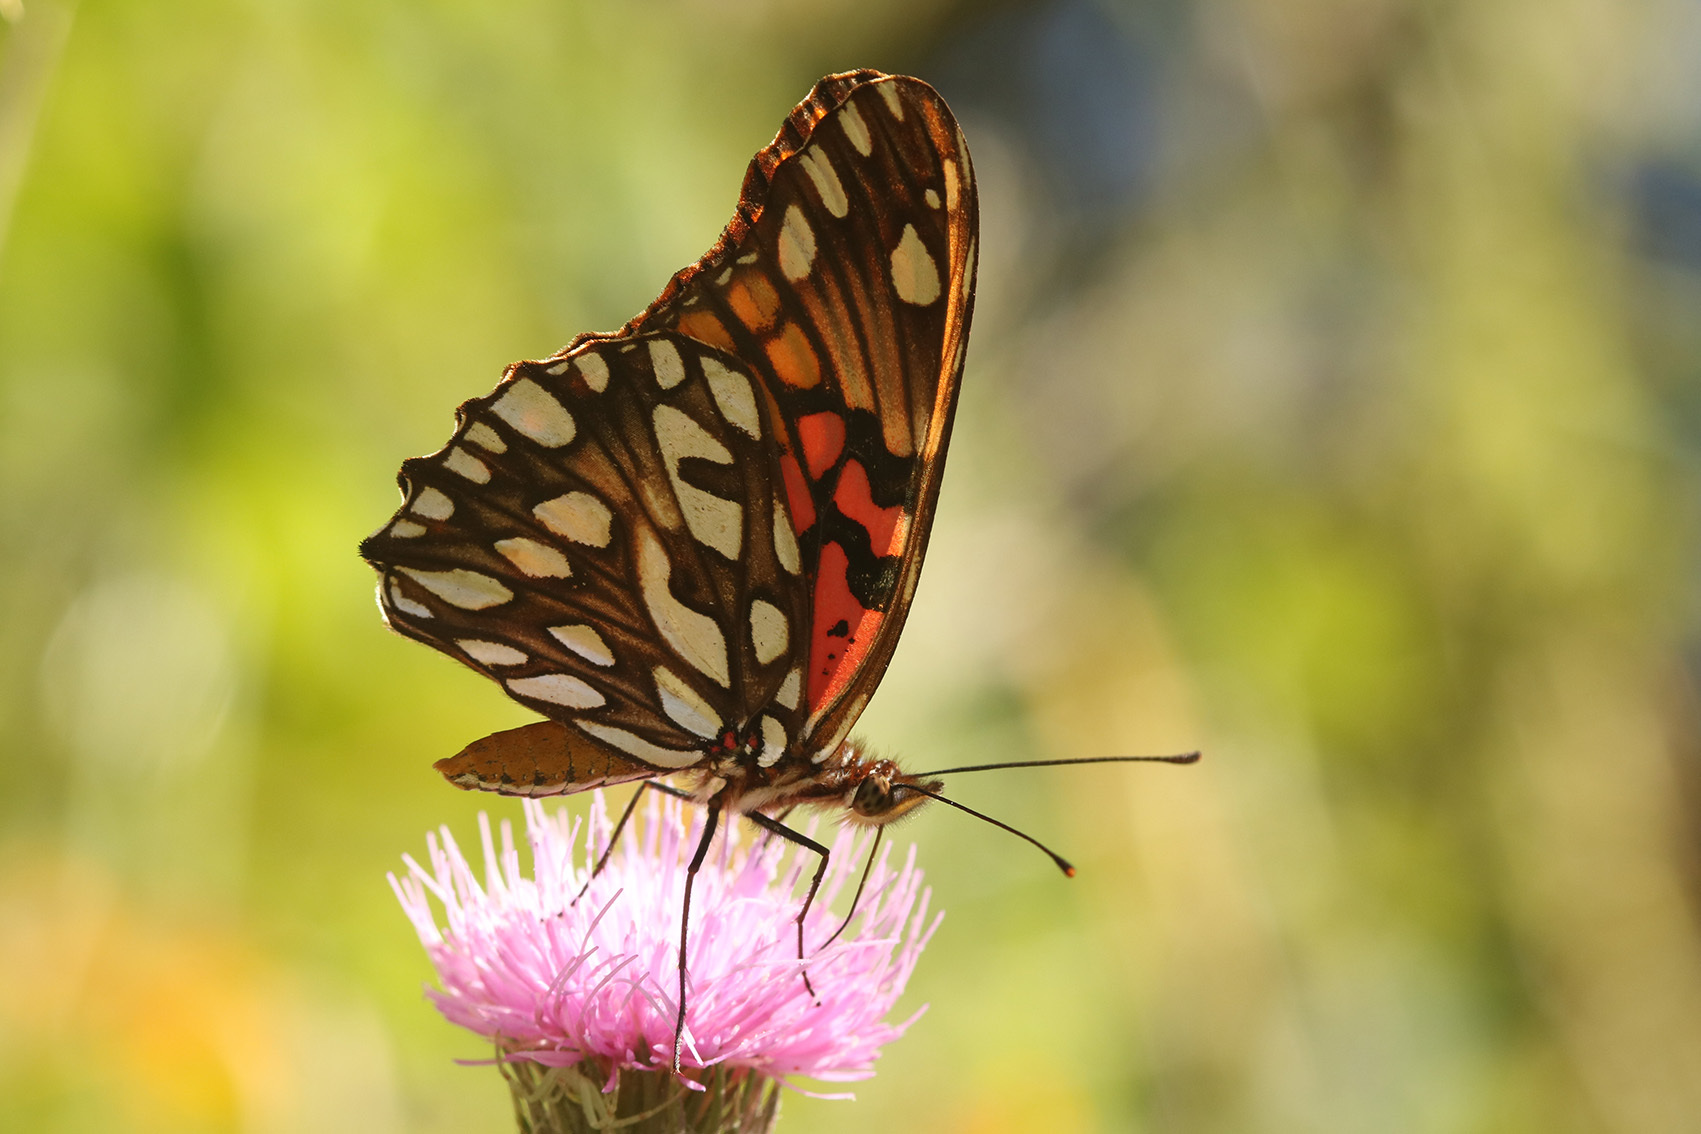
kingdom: Animalia
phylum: Arthropoda
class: Insecta
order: Lepidoptera
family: Nymphalidae
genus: Dione
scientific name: Dione moneta
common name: Mexican silverspot
